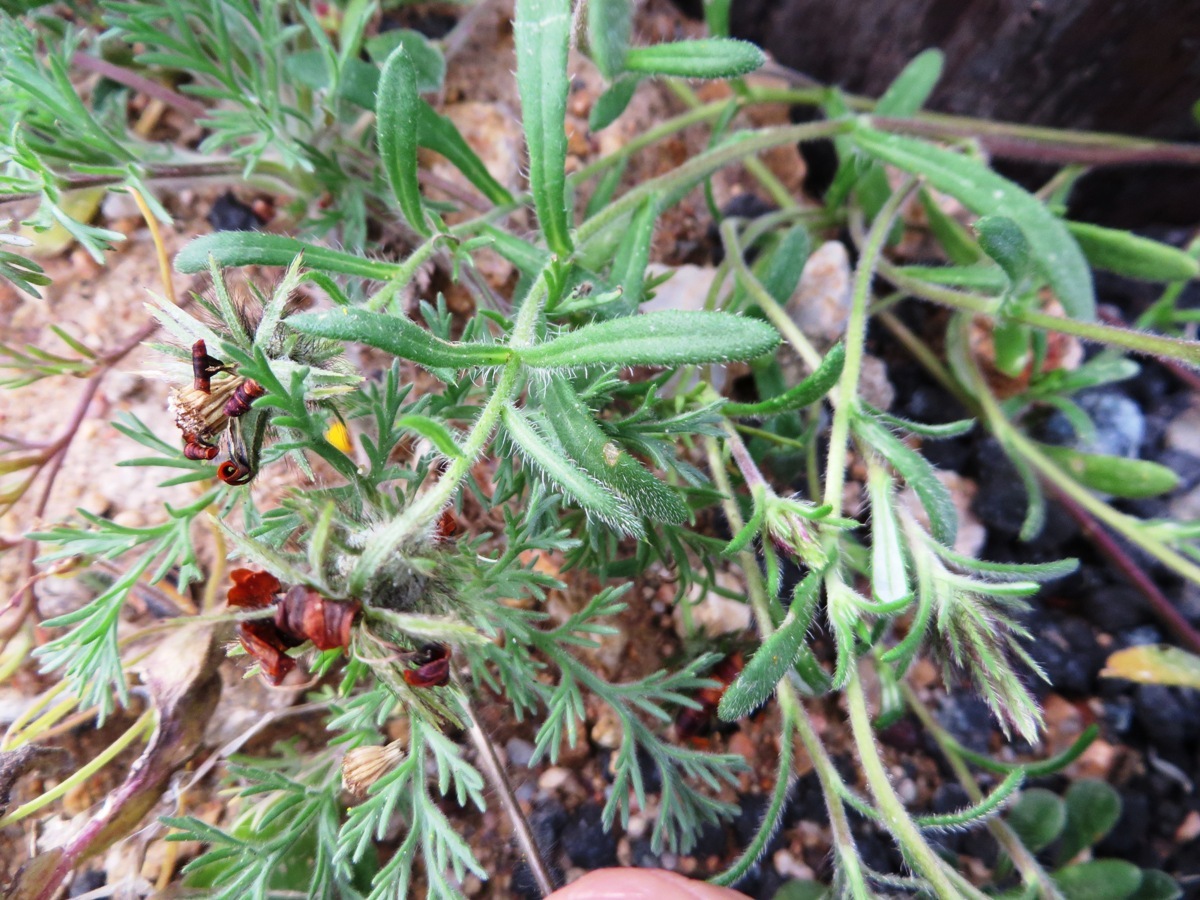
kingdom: Plantae
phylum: Tracheophyta
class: Magnoliopsida
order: Asterales
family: Asteraceae
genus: Gorteria
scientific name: Gorteria diffusa
